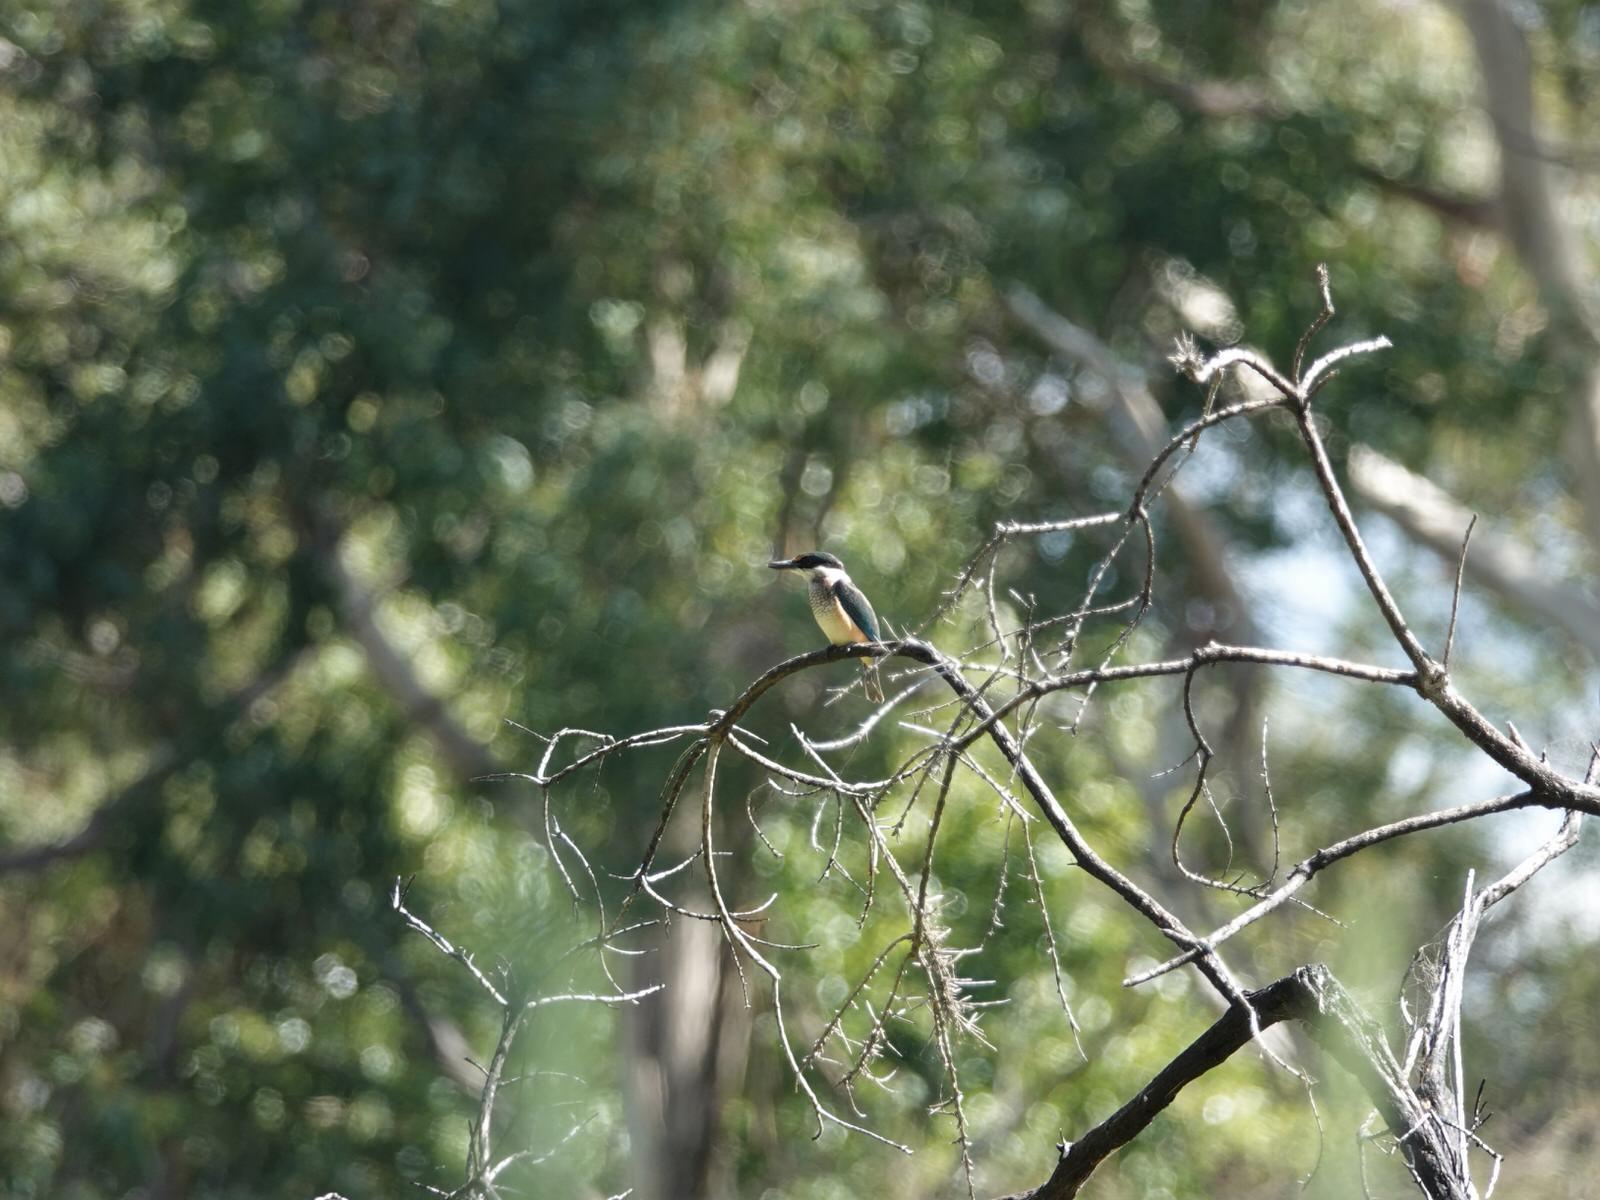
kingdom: Animalia
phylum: Chordata
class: Aves
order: Coraciiformes
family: Alcedinidae
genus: Todiramphus
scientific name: Todiramphus sanctus
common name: Sacred kingfisher
